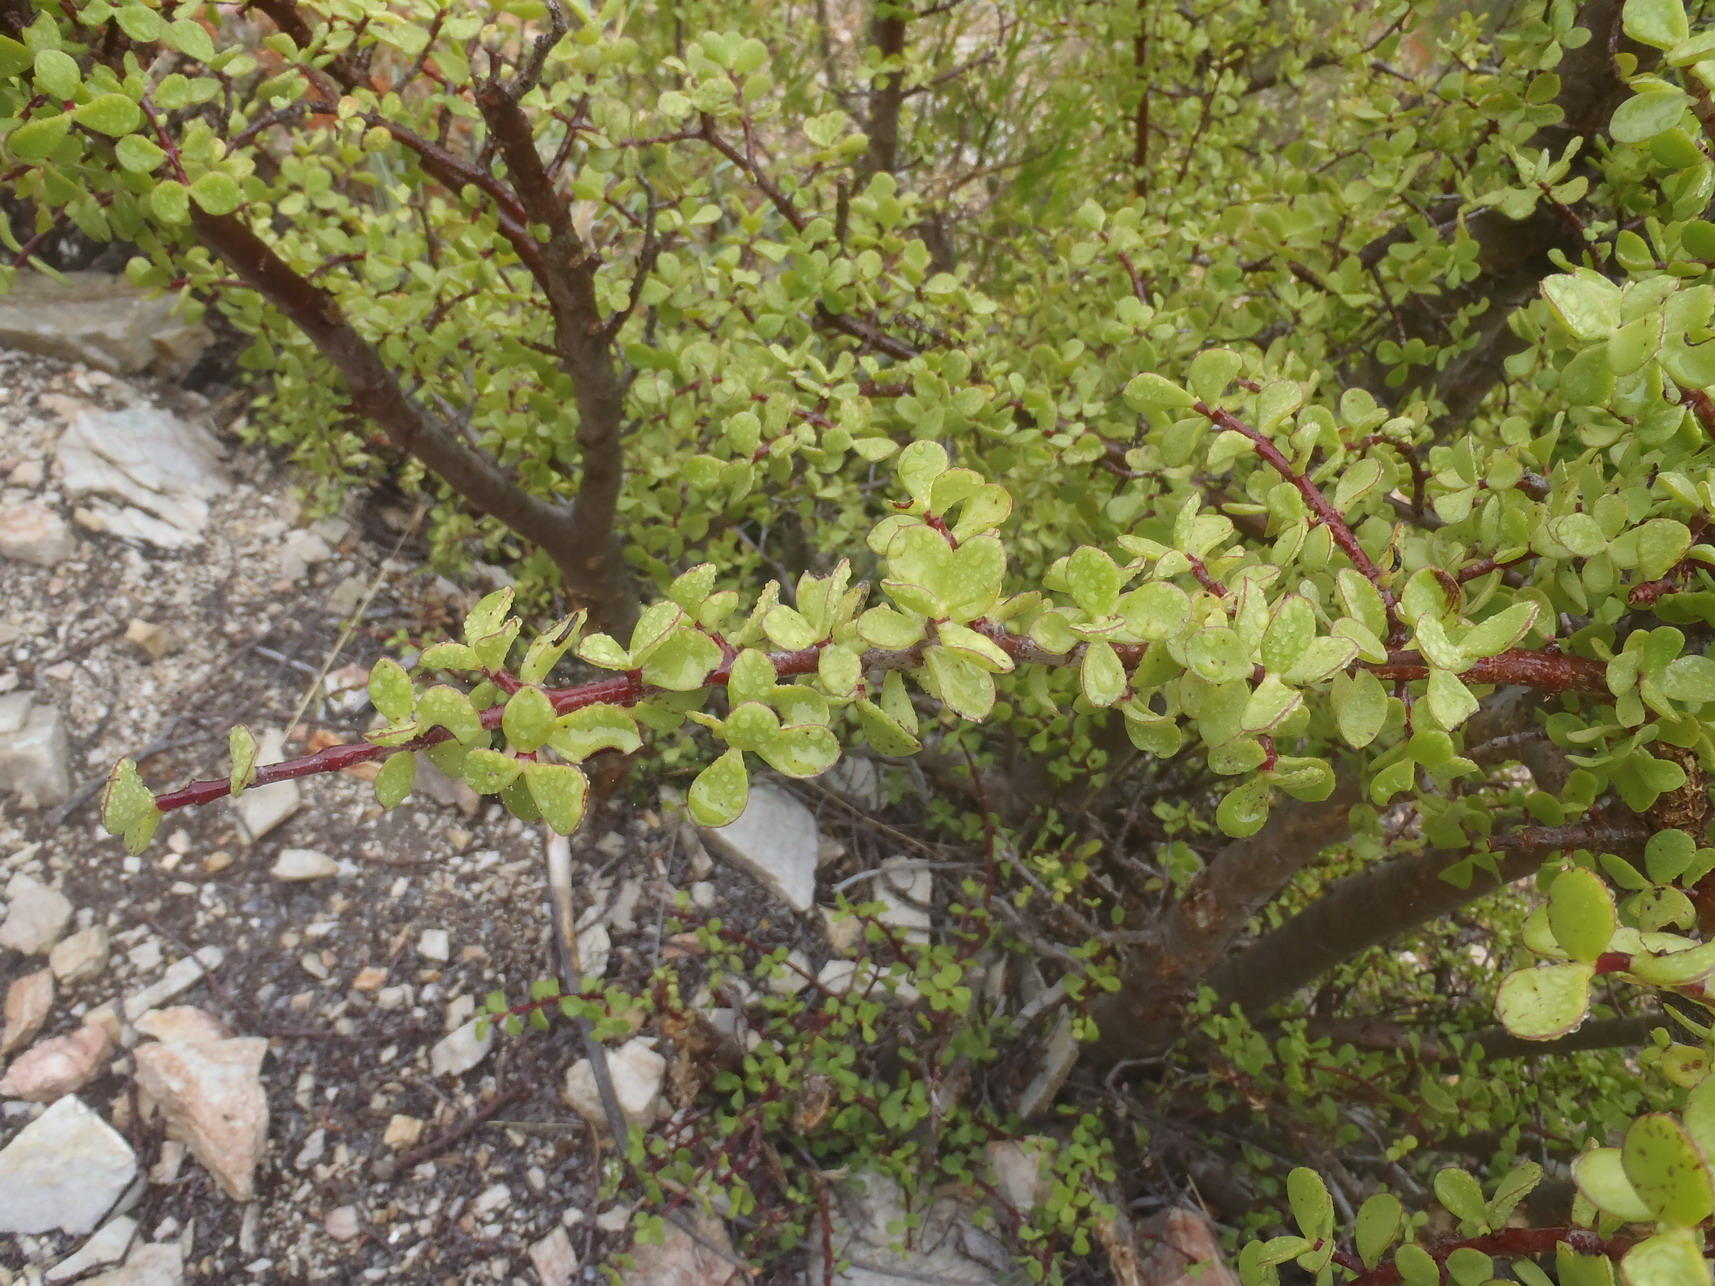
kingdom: Plantae
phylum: Tracheophyta
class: Magnoliopsida
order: Caryophyllales
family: Didiereaceae
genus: Portulacaria
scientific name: Portulacaria afra
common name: Elephant-bush
